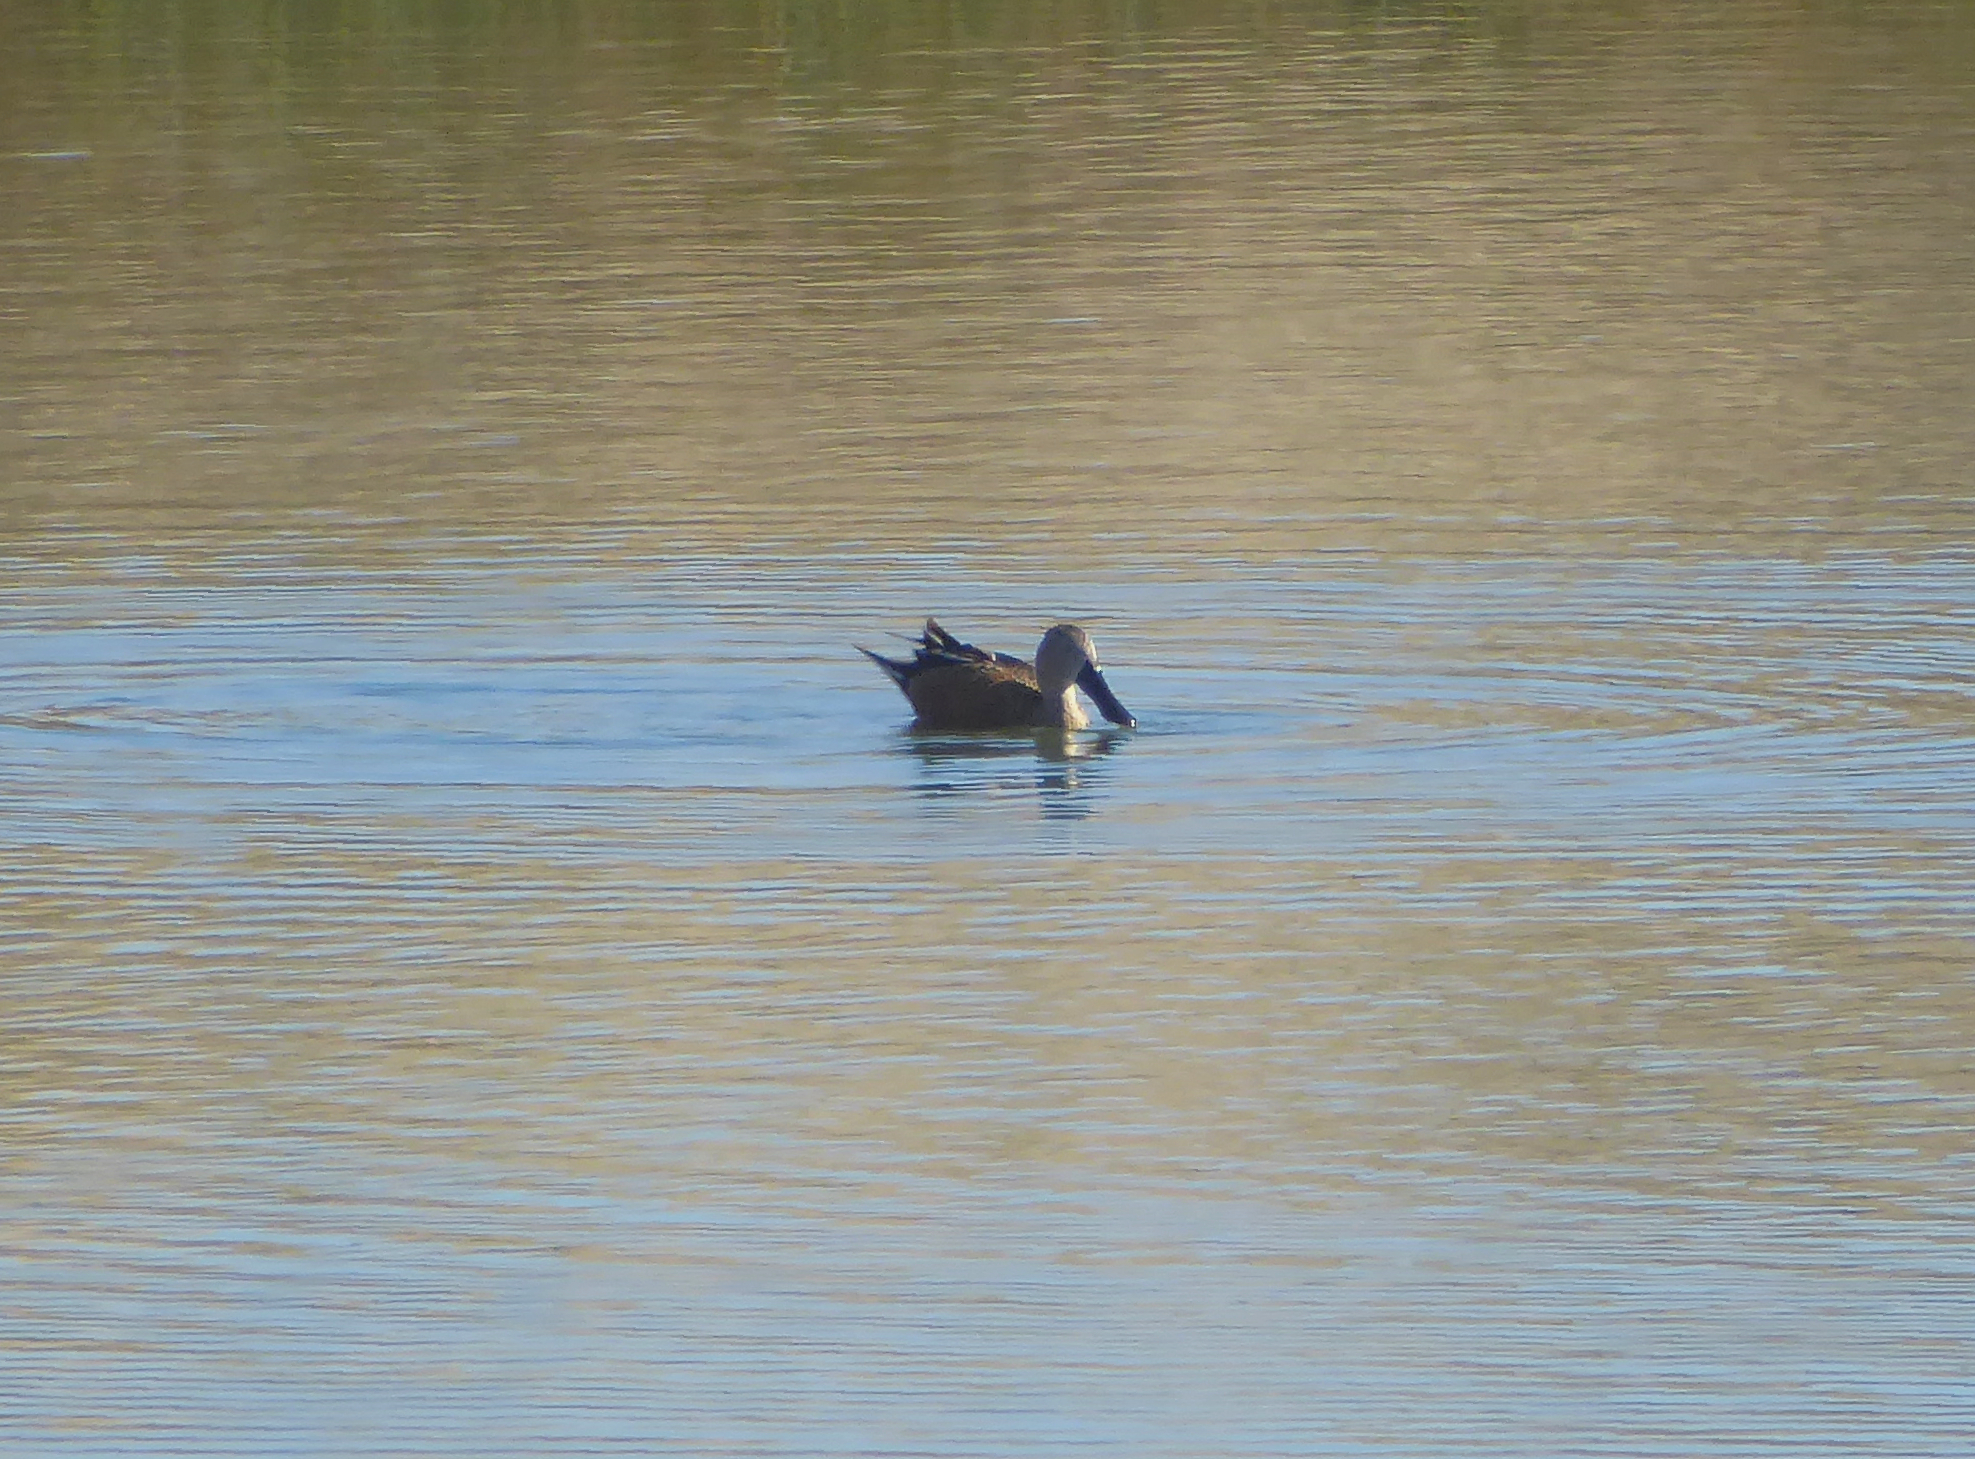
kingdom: Animalia
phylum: Chordata
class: Aves
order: Anseriformes
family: Anatidae
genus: Spatula
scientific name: Spatula platalea
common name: Red shoveler
